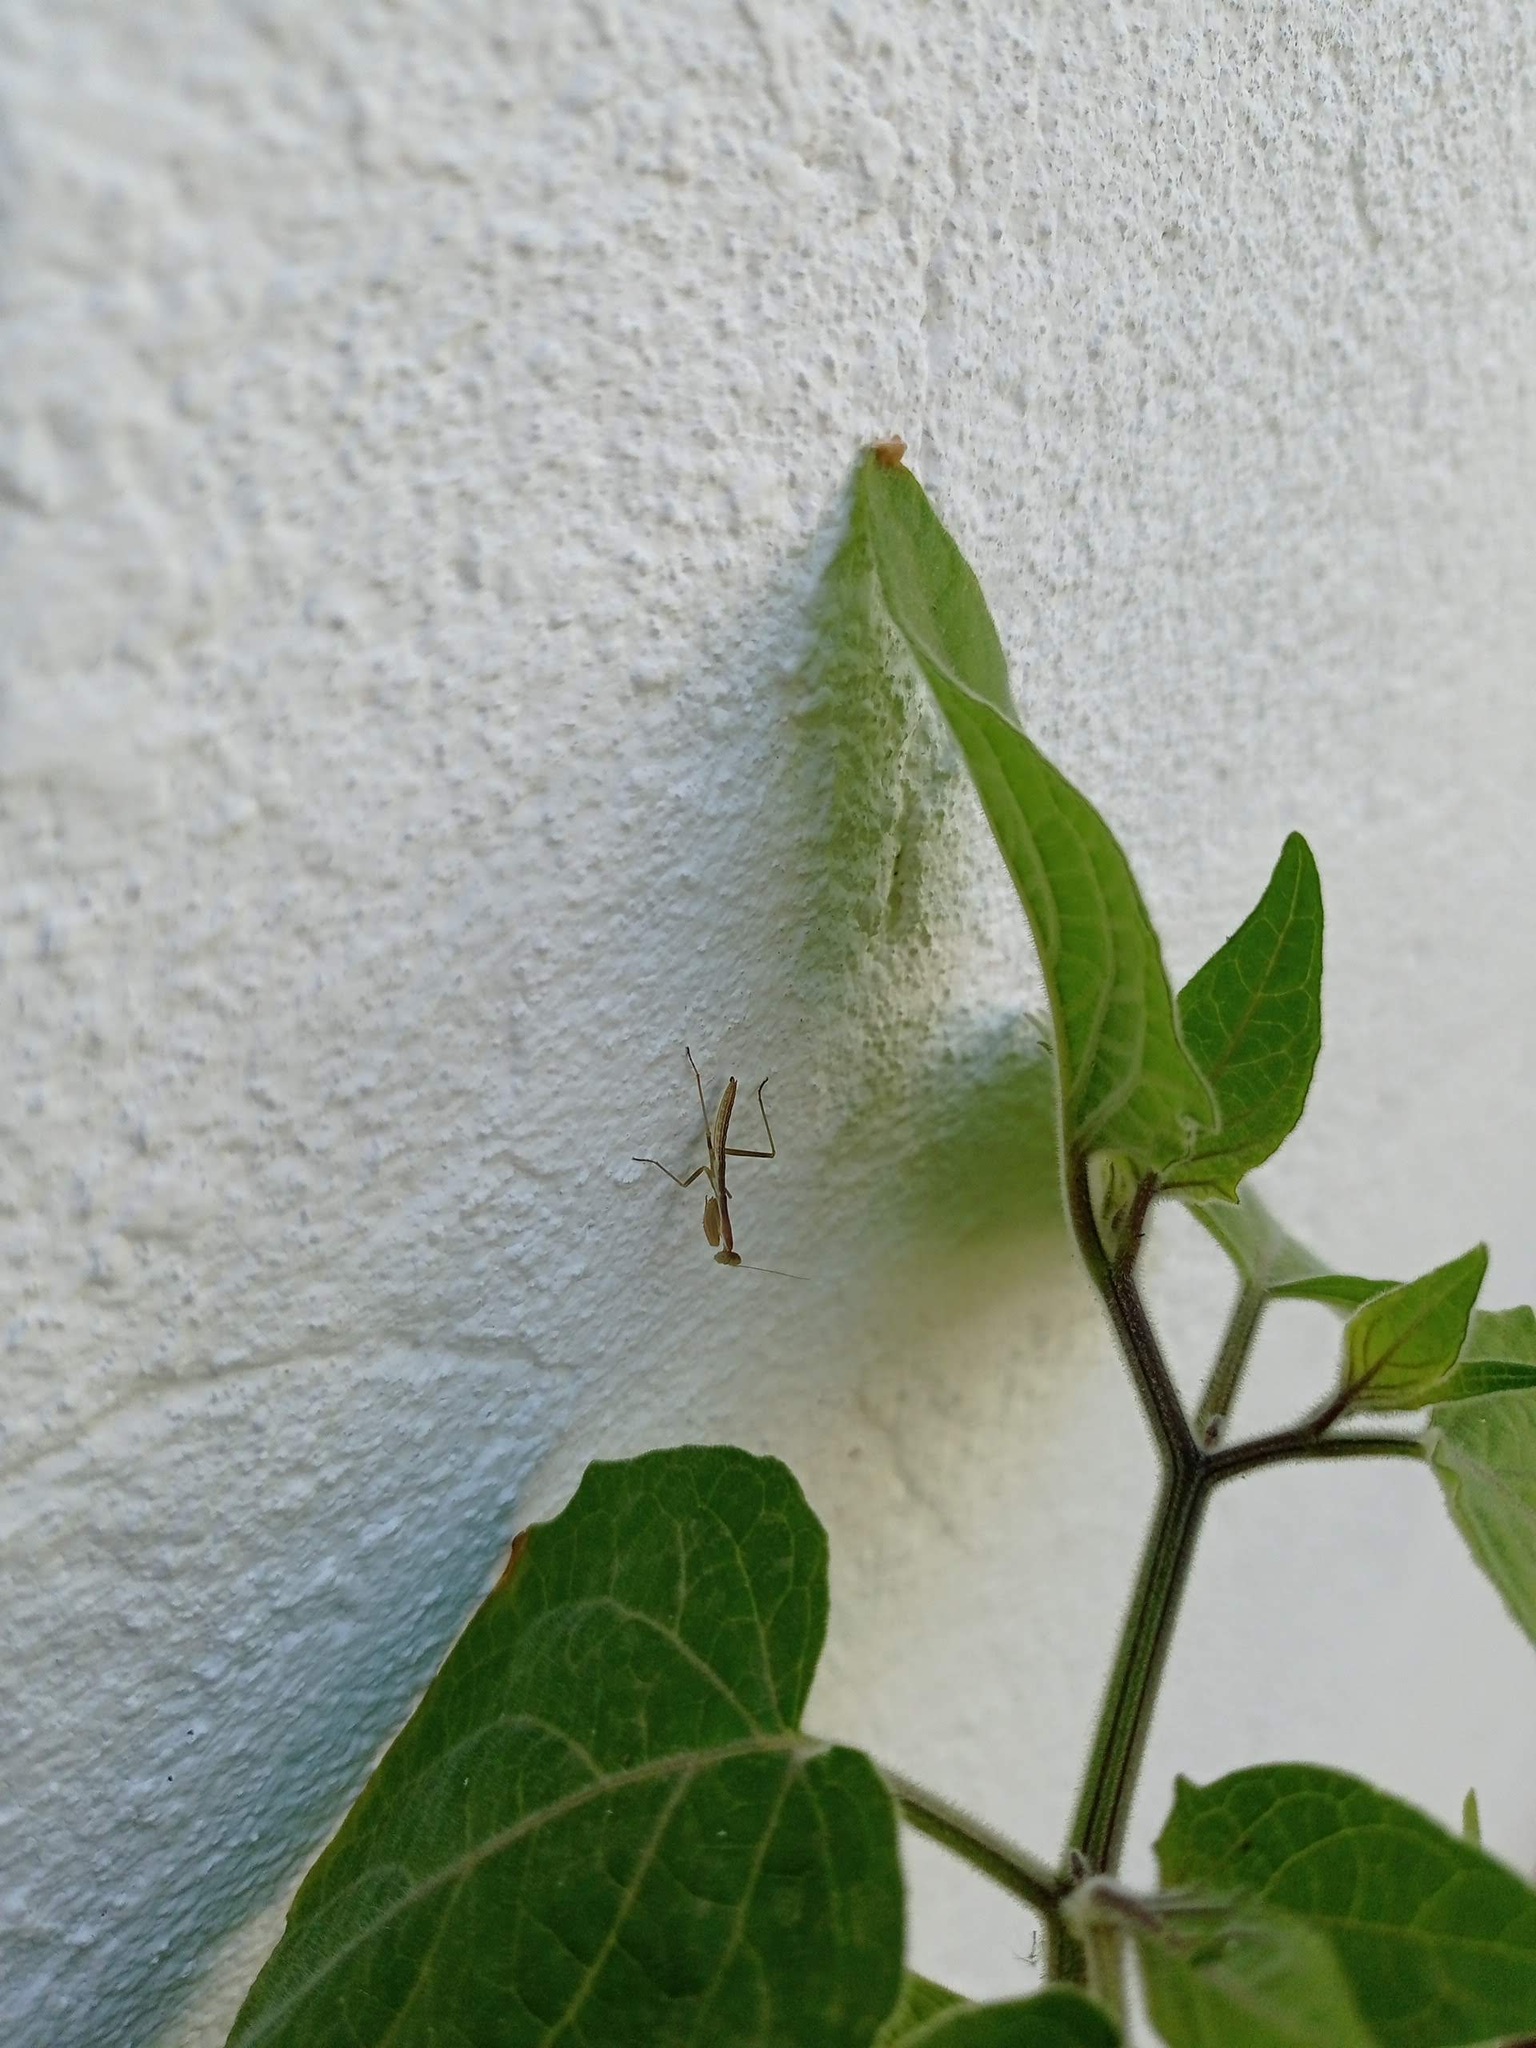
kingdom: Animalia
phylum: Arthropoda
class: Insecta
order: Mantodea
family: Eremiaphilidae
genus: Iris
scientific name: Iris oratoria
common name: Mediterranean mantis
